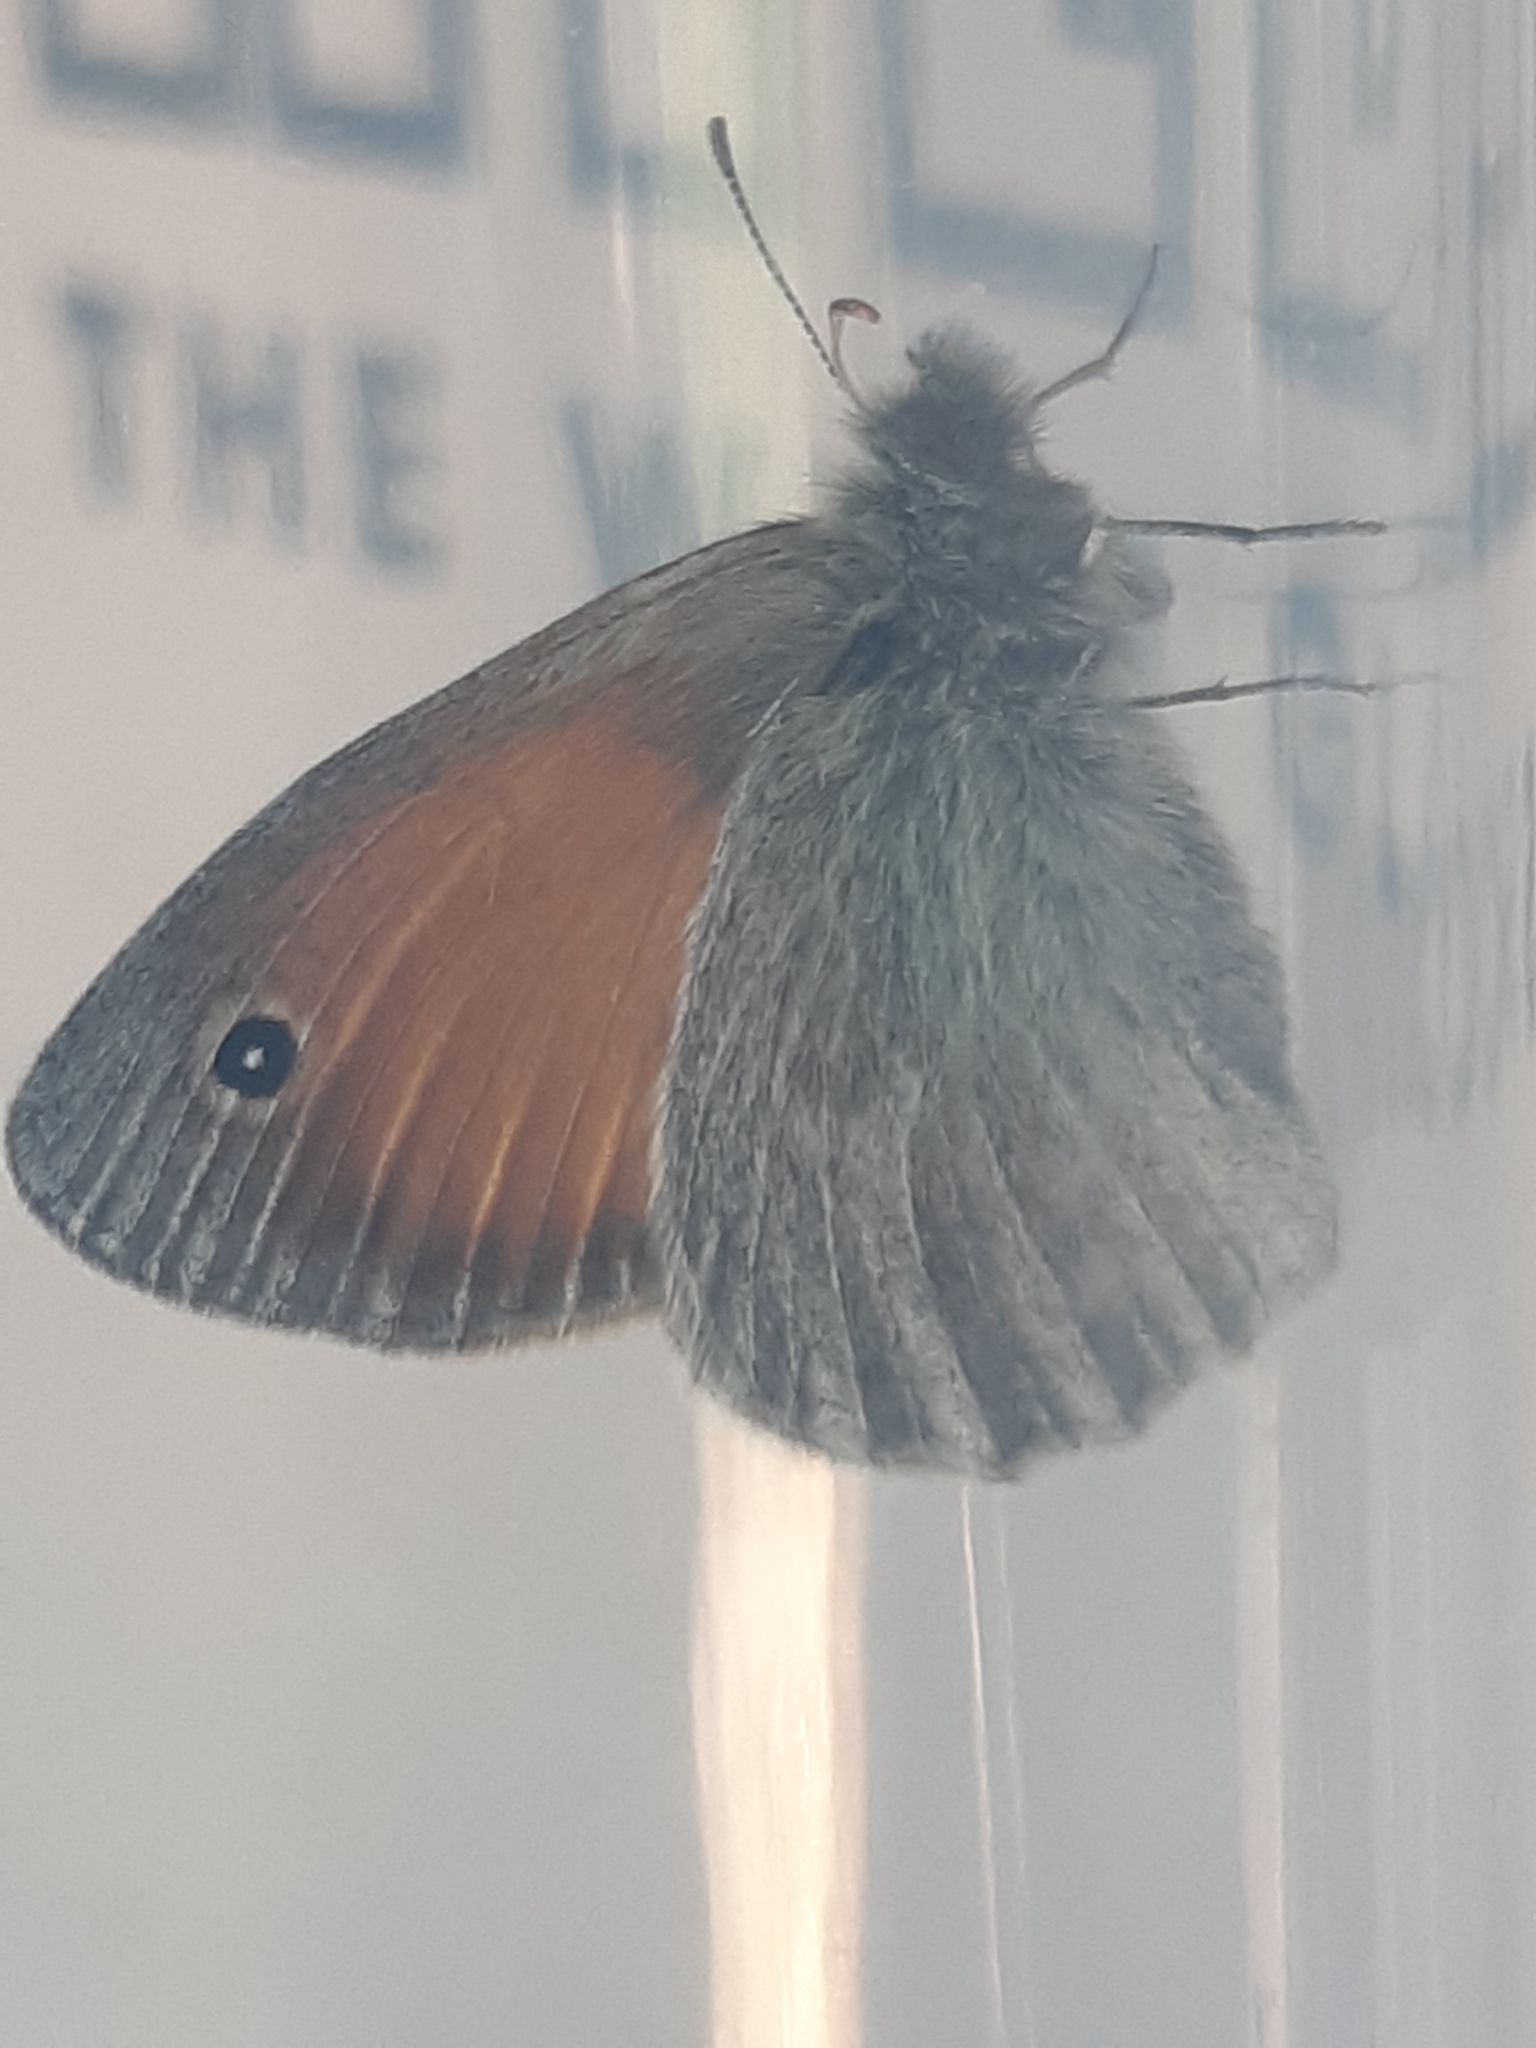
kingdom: Animalia
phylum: Arthropoda
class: Insecta
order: Lepidoptera
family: Nymphalidae
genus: Coenonympha
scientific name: Coenonympha pamphilus
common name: Small heath
